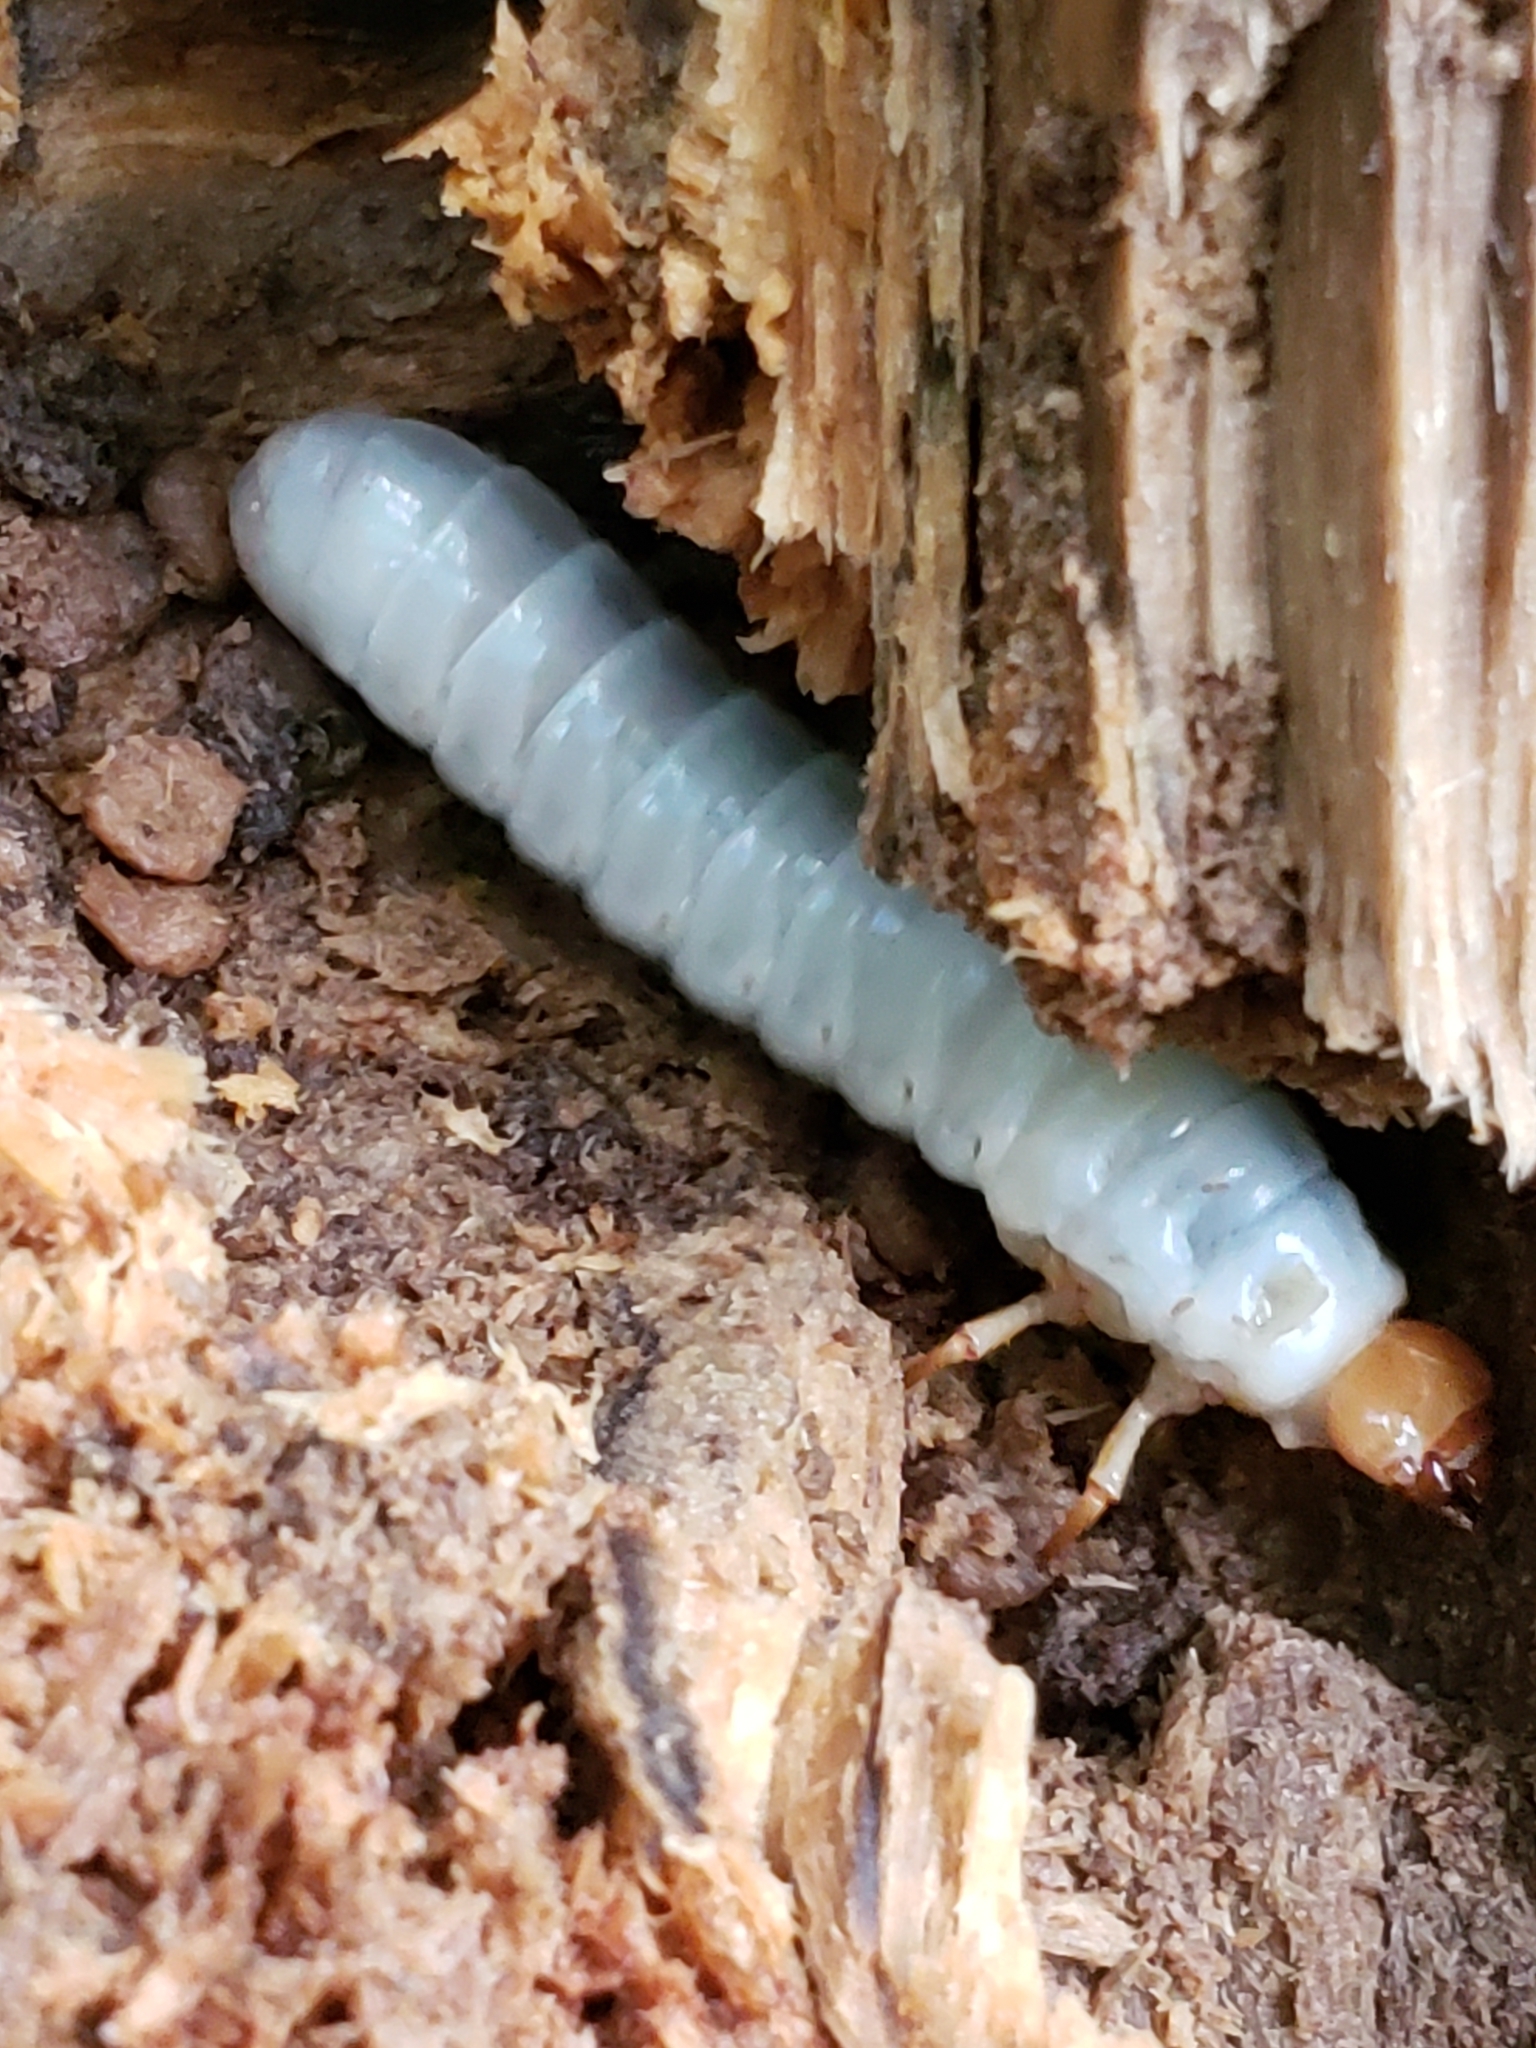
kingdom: Animalia
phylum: Arthropoda
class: Insecta
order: Coleoptera
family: Passalidae
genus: Odontotaenius
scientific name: Odontotaenius disjunctus
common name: Patent leather beetle
